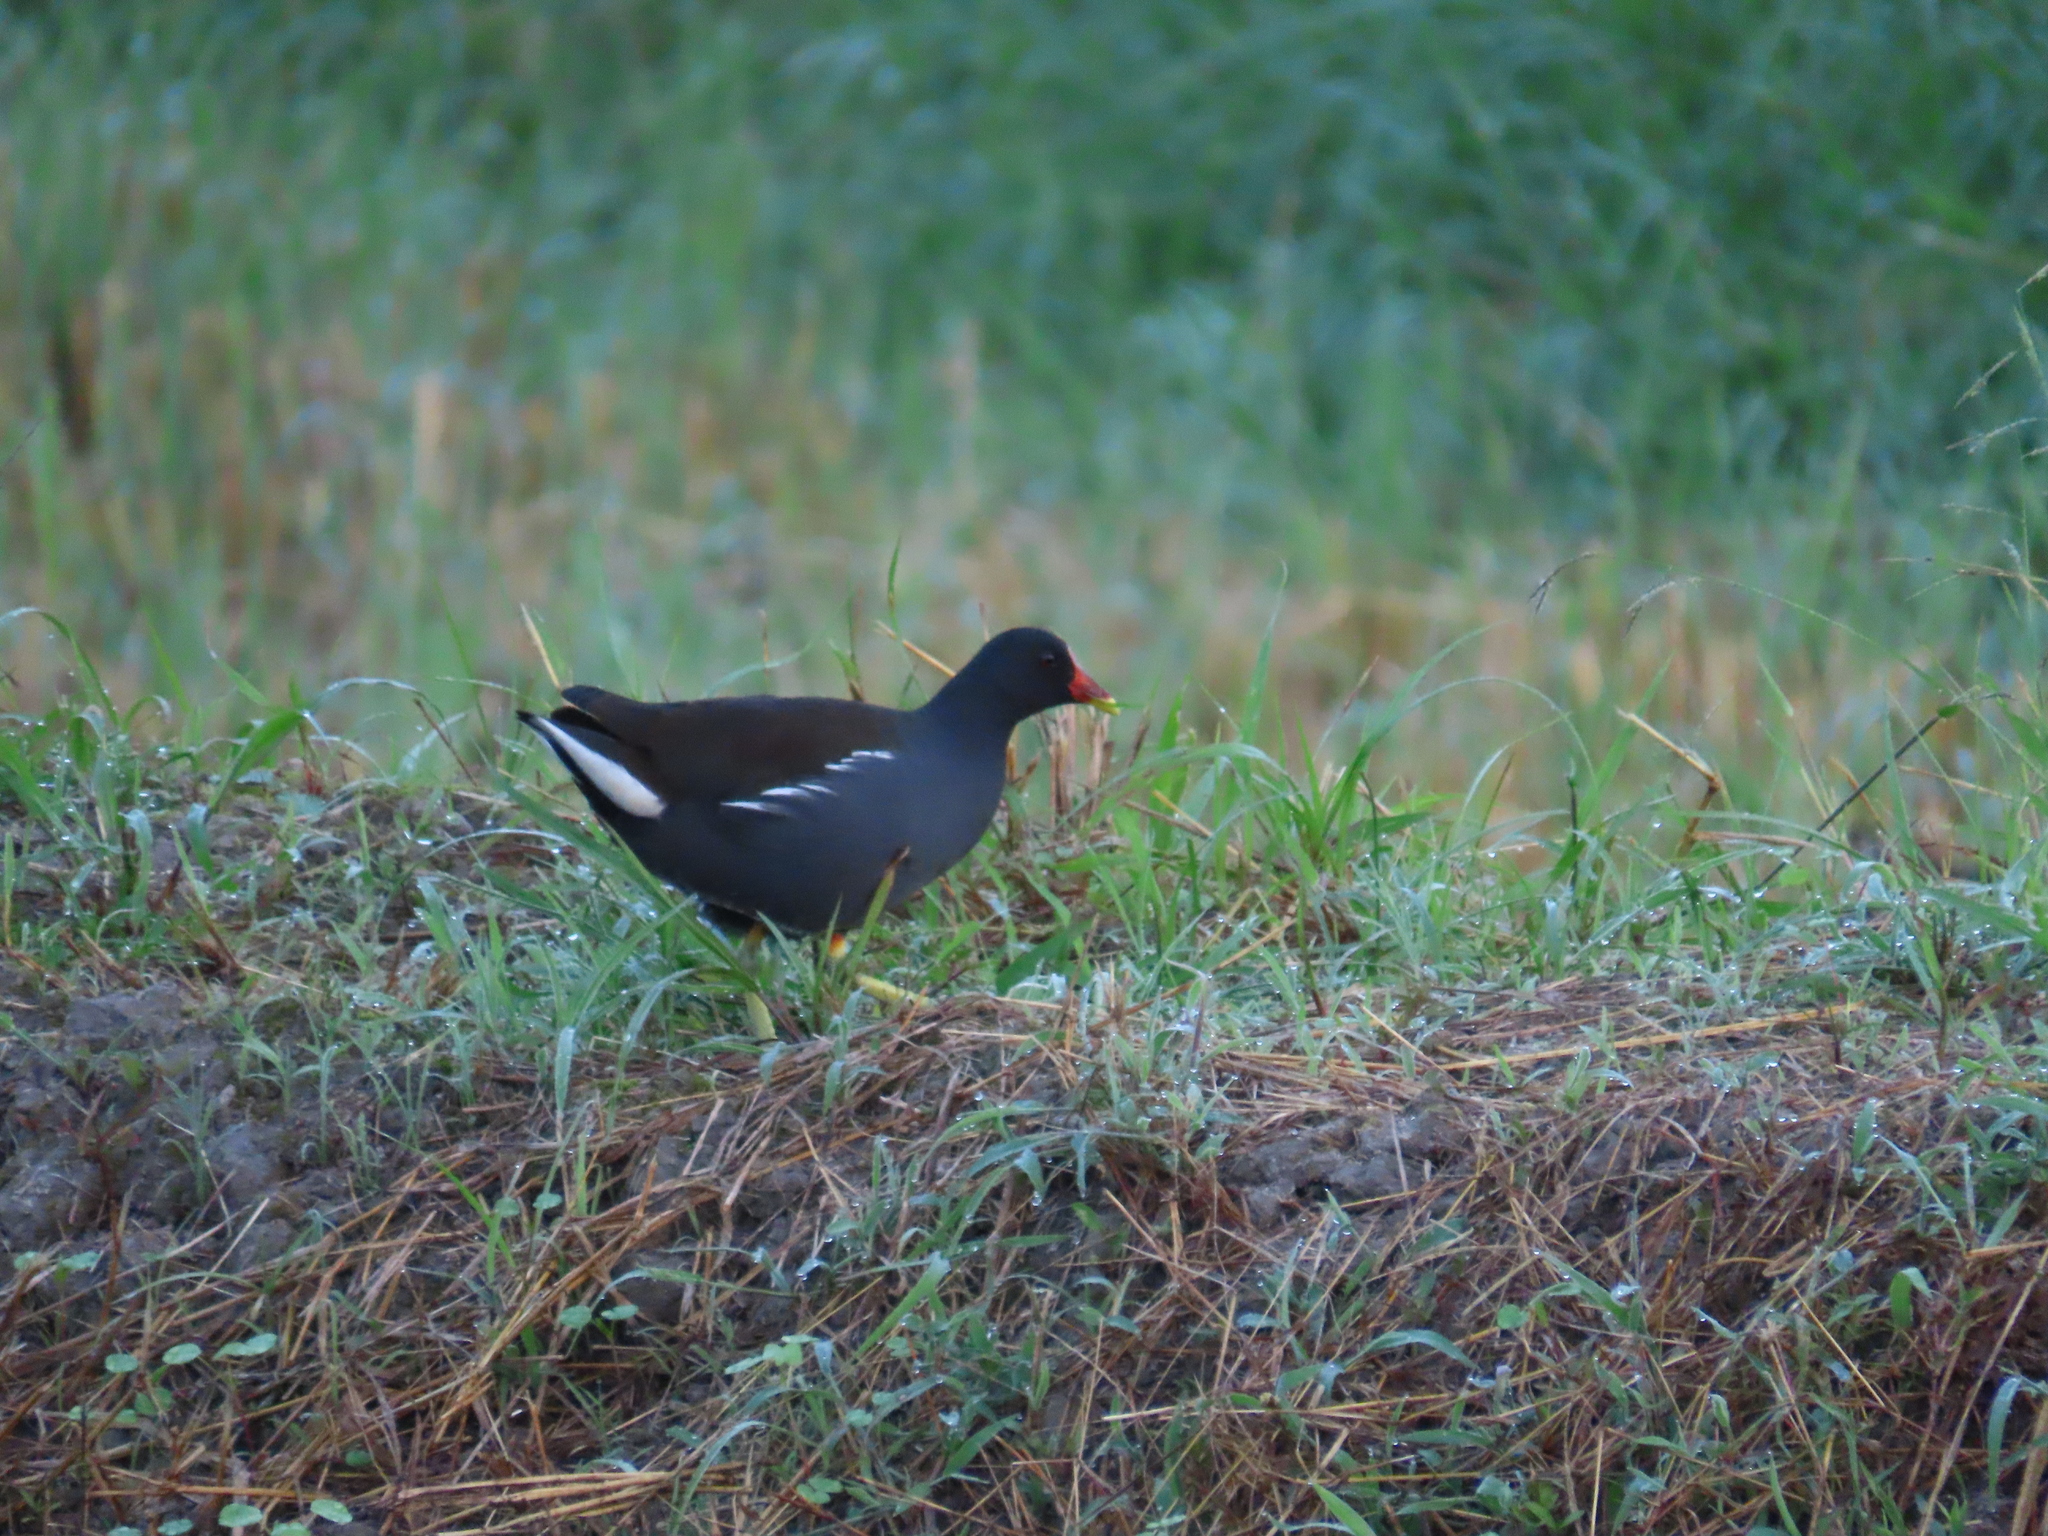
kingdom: Animalia
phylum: Chordata
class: Aves
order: Gruiformes
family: Rallidae
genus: Gallinula
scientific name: Gallinula chloropus
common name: Common moorhen
